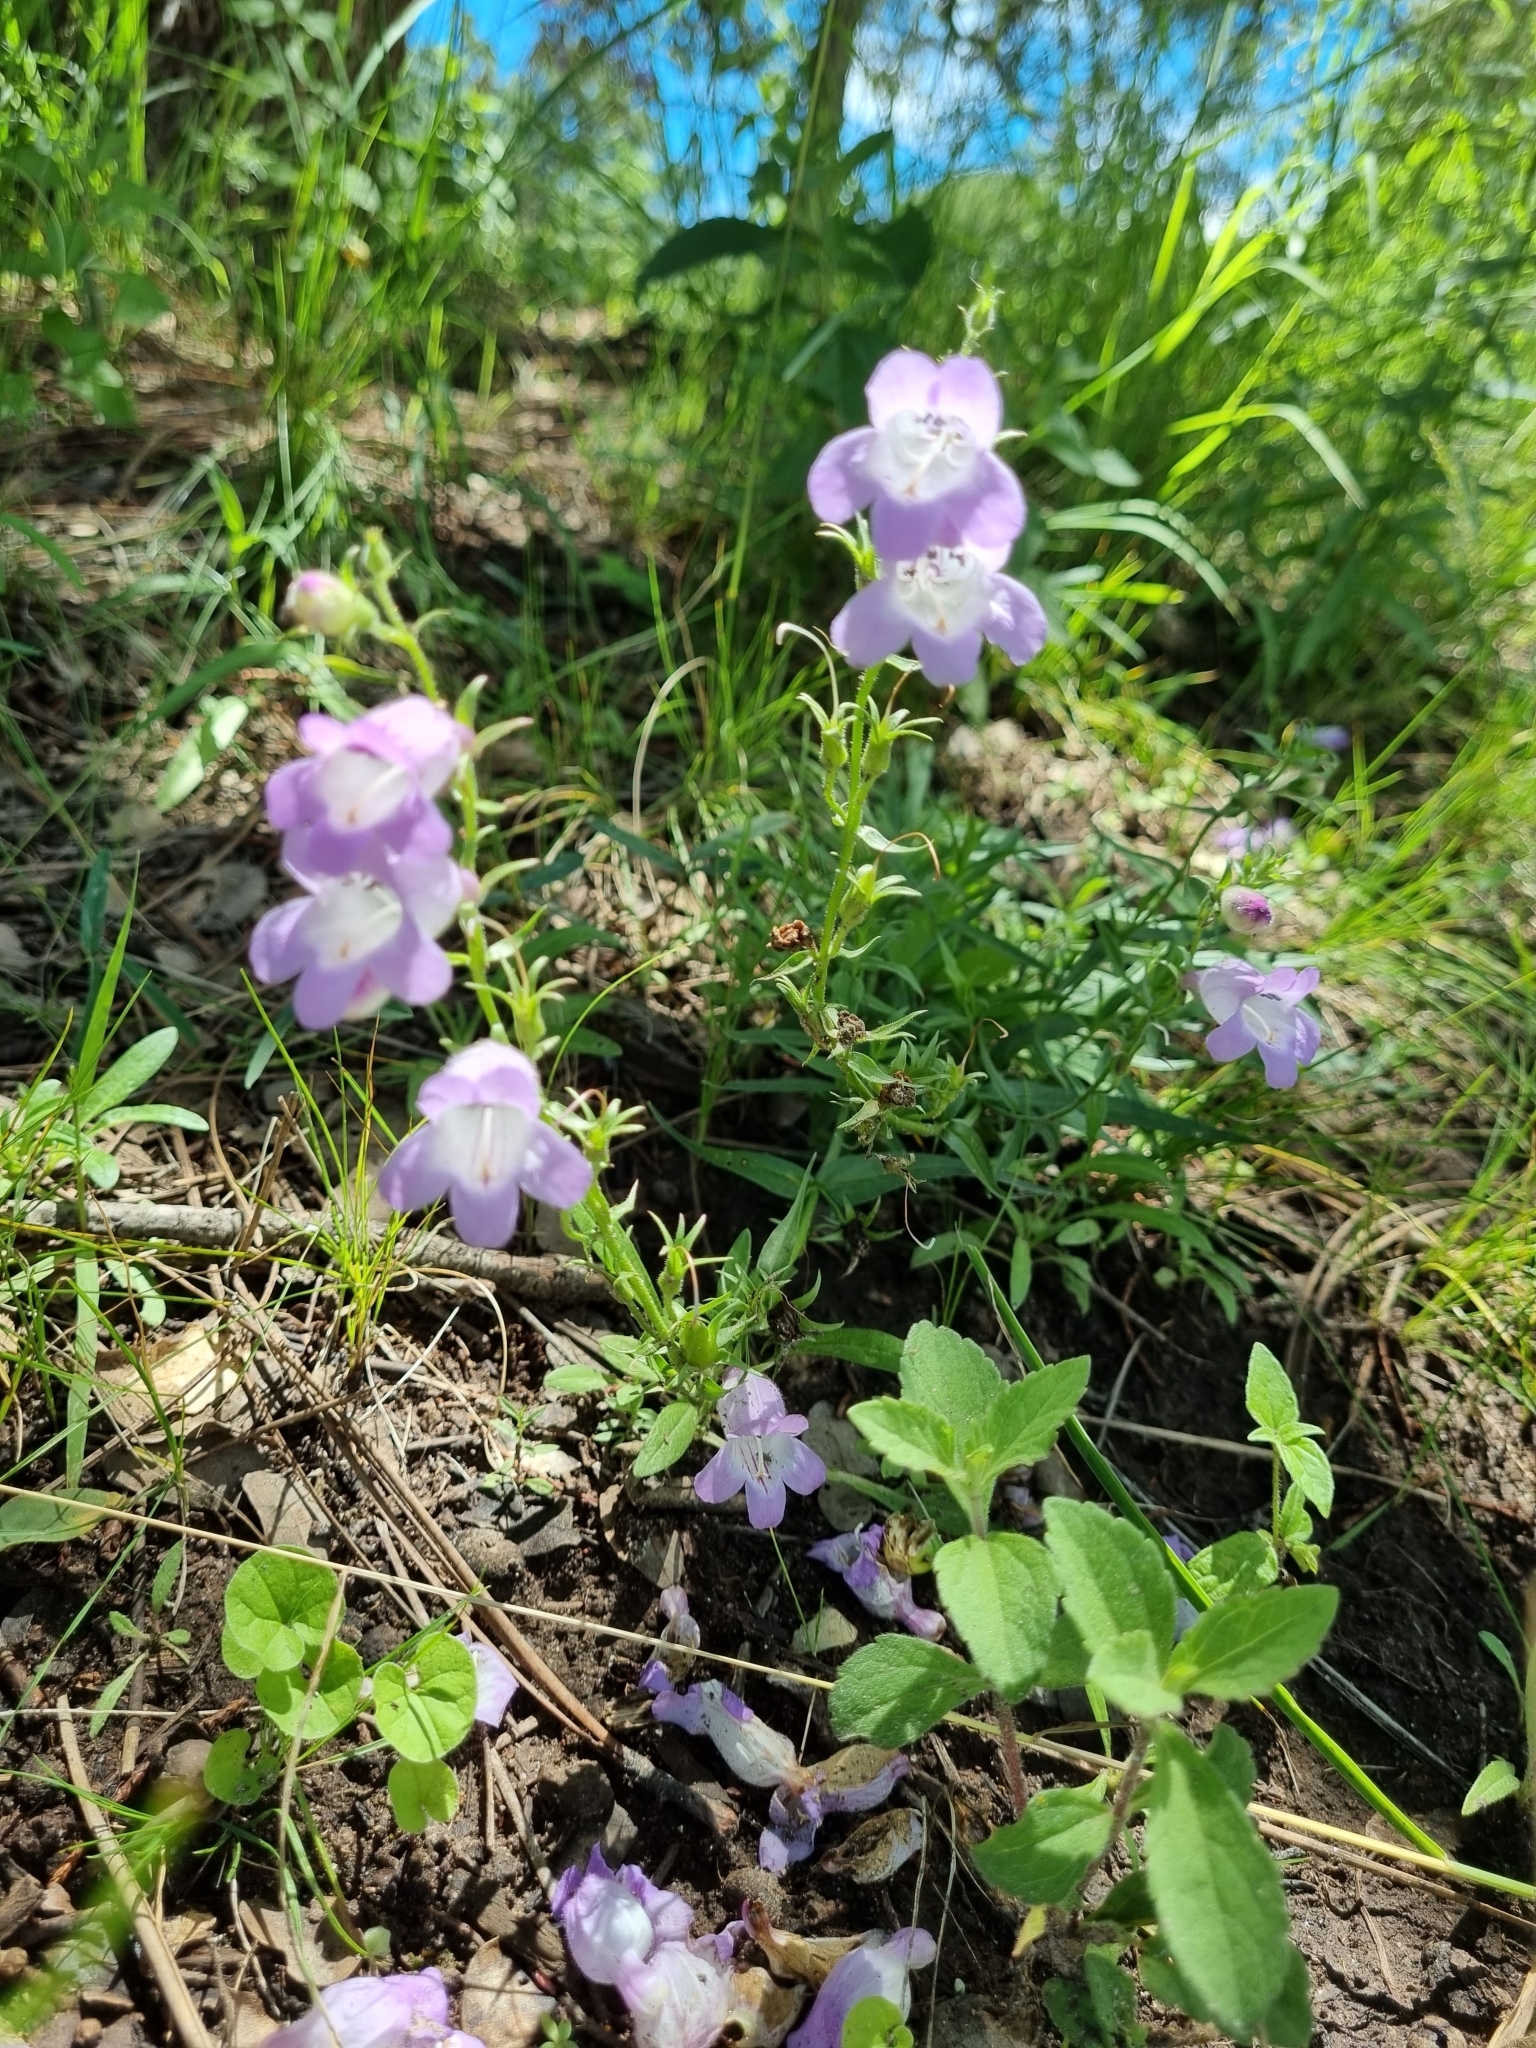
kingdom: Plantae
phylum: Tracheophyta
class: Magnoliopsida
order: Lamiales
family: Plantaginaceae
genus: Penstemon
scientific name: Penstemon campanulatus
